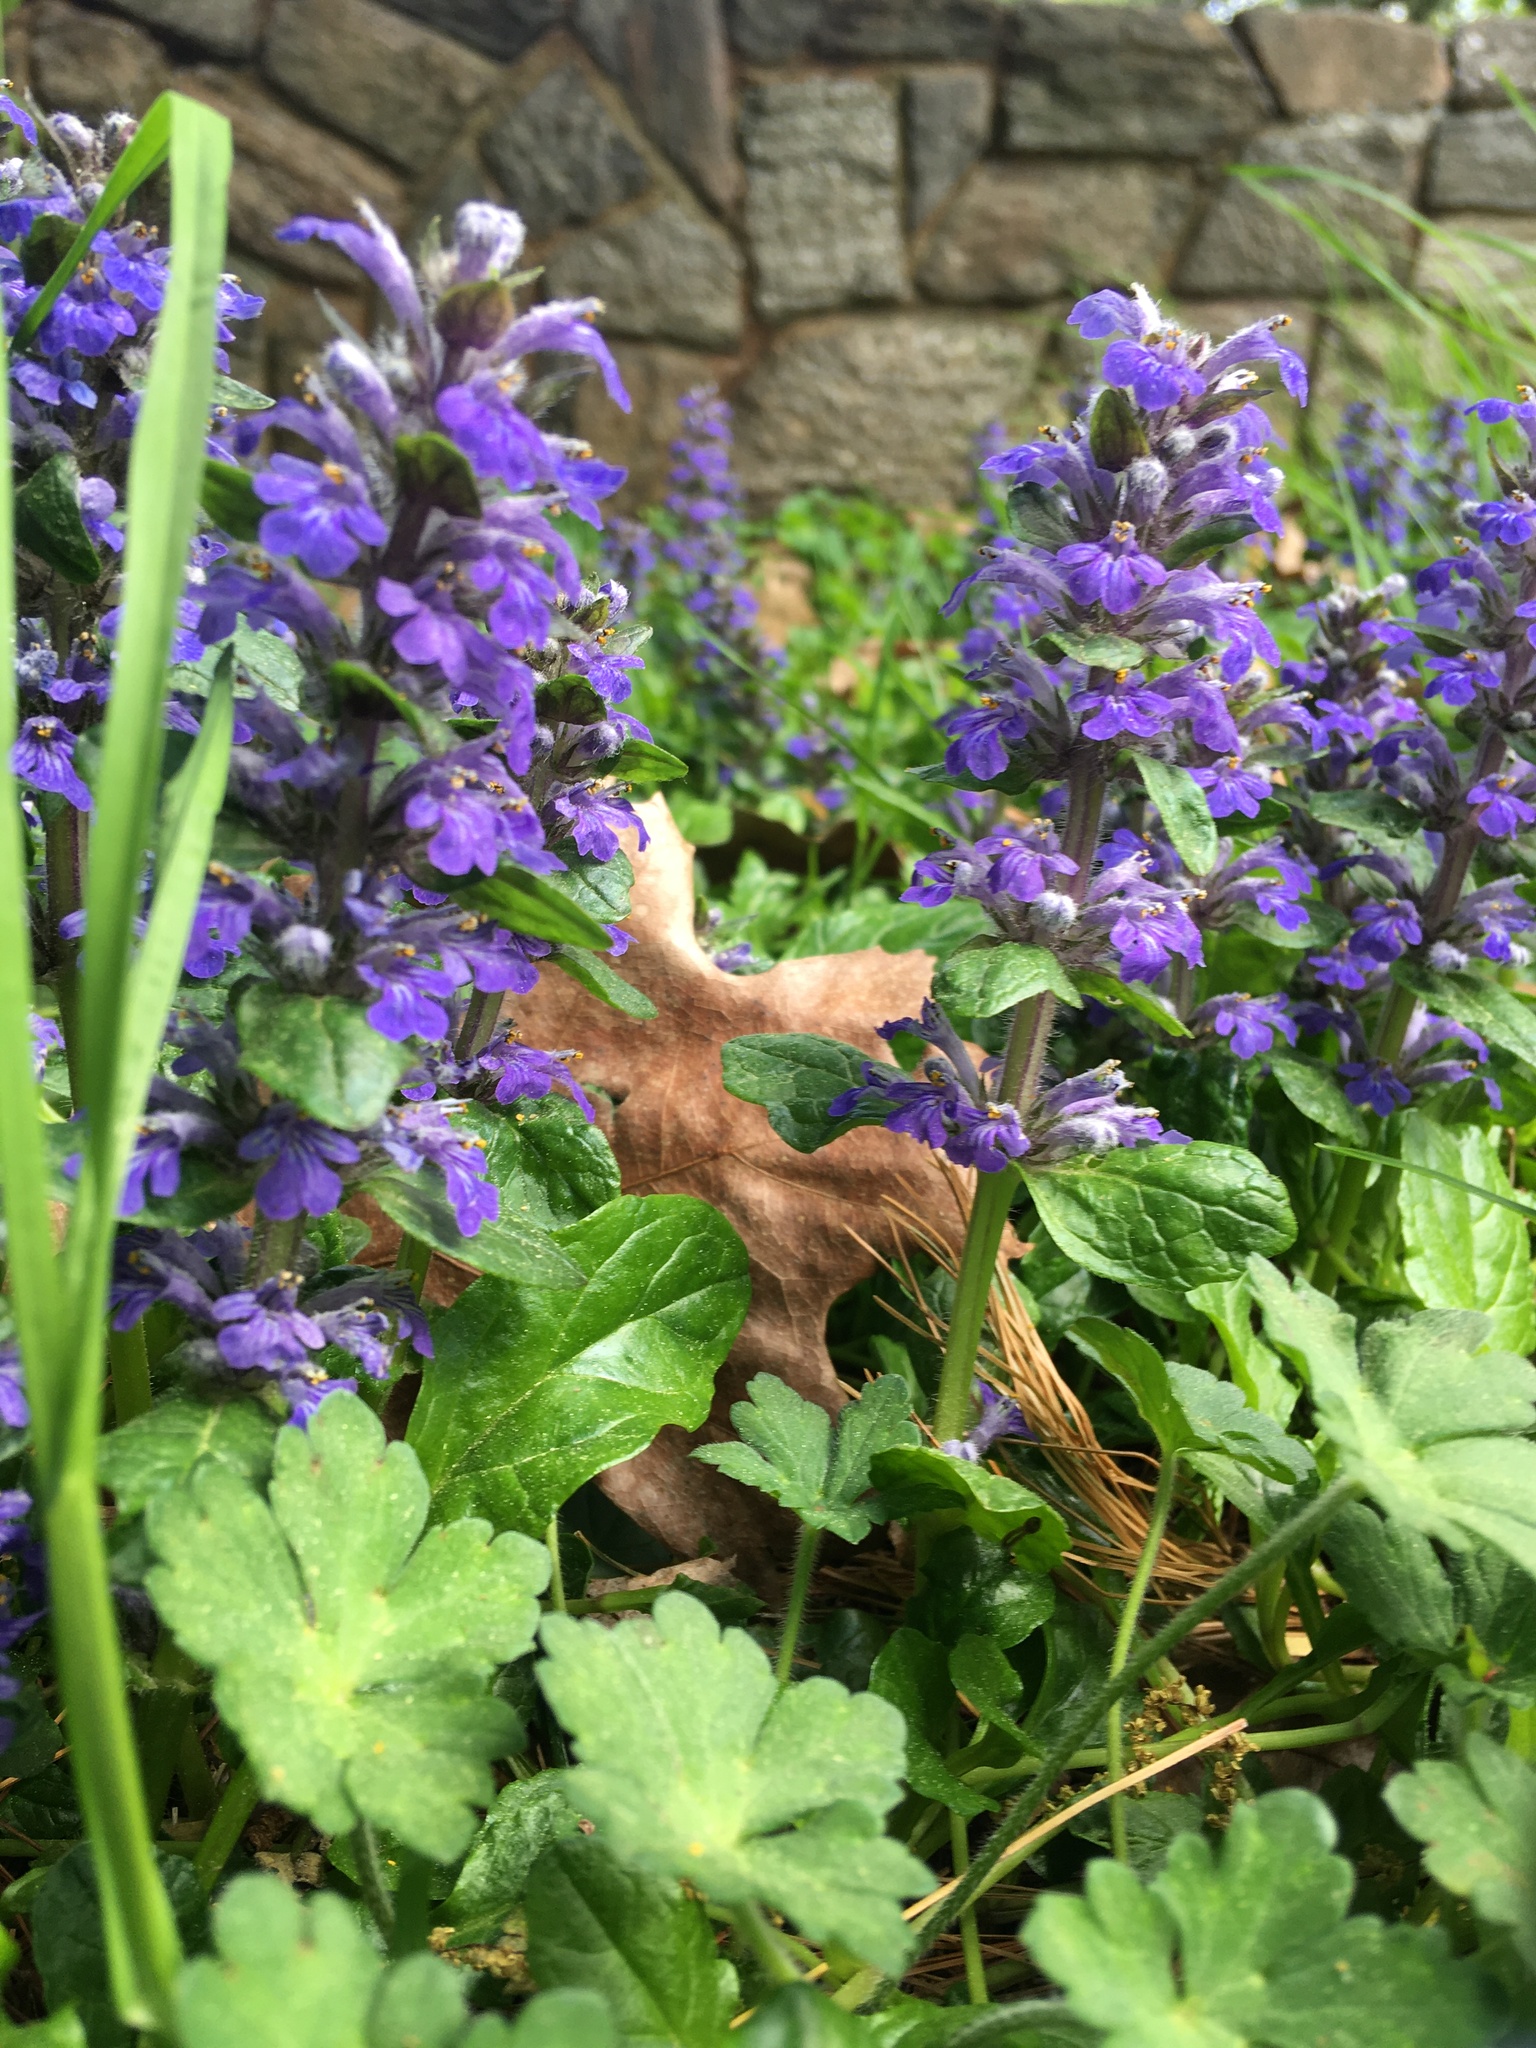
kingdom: Plantae
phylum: Tracheophyta
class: Magnoliopsida
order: Lamiales
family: Lamiaceae
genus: Ajuga
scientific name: Ajuga reptans
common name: Bugle
